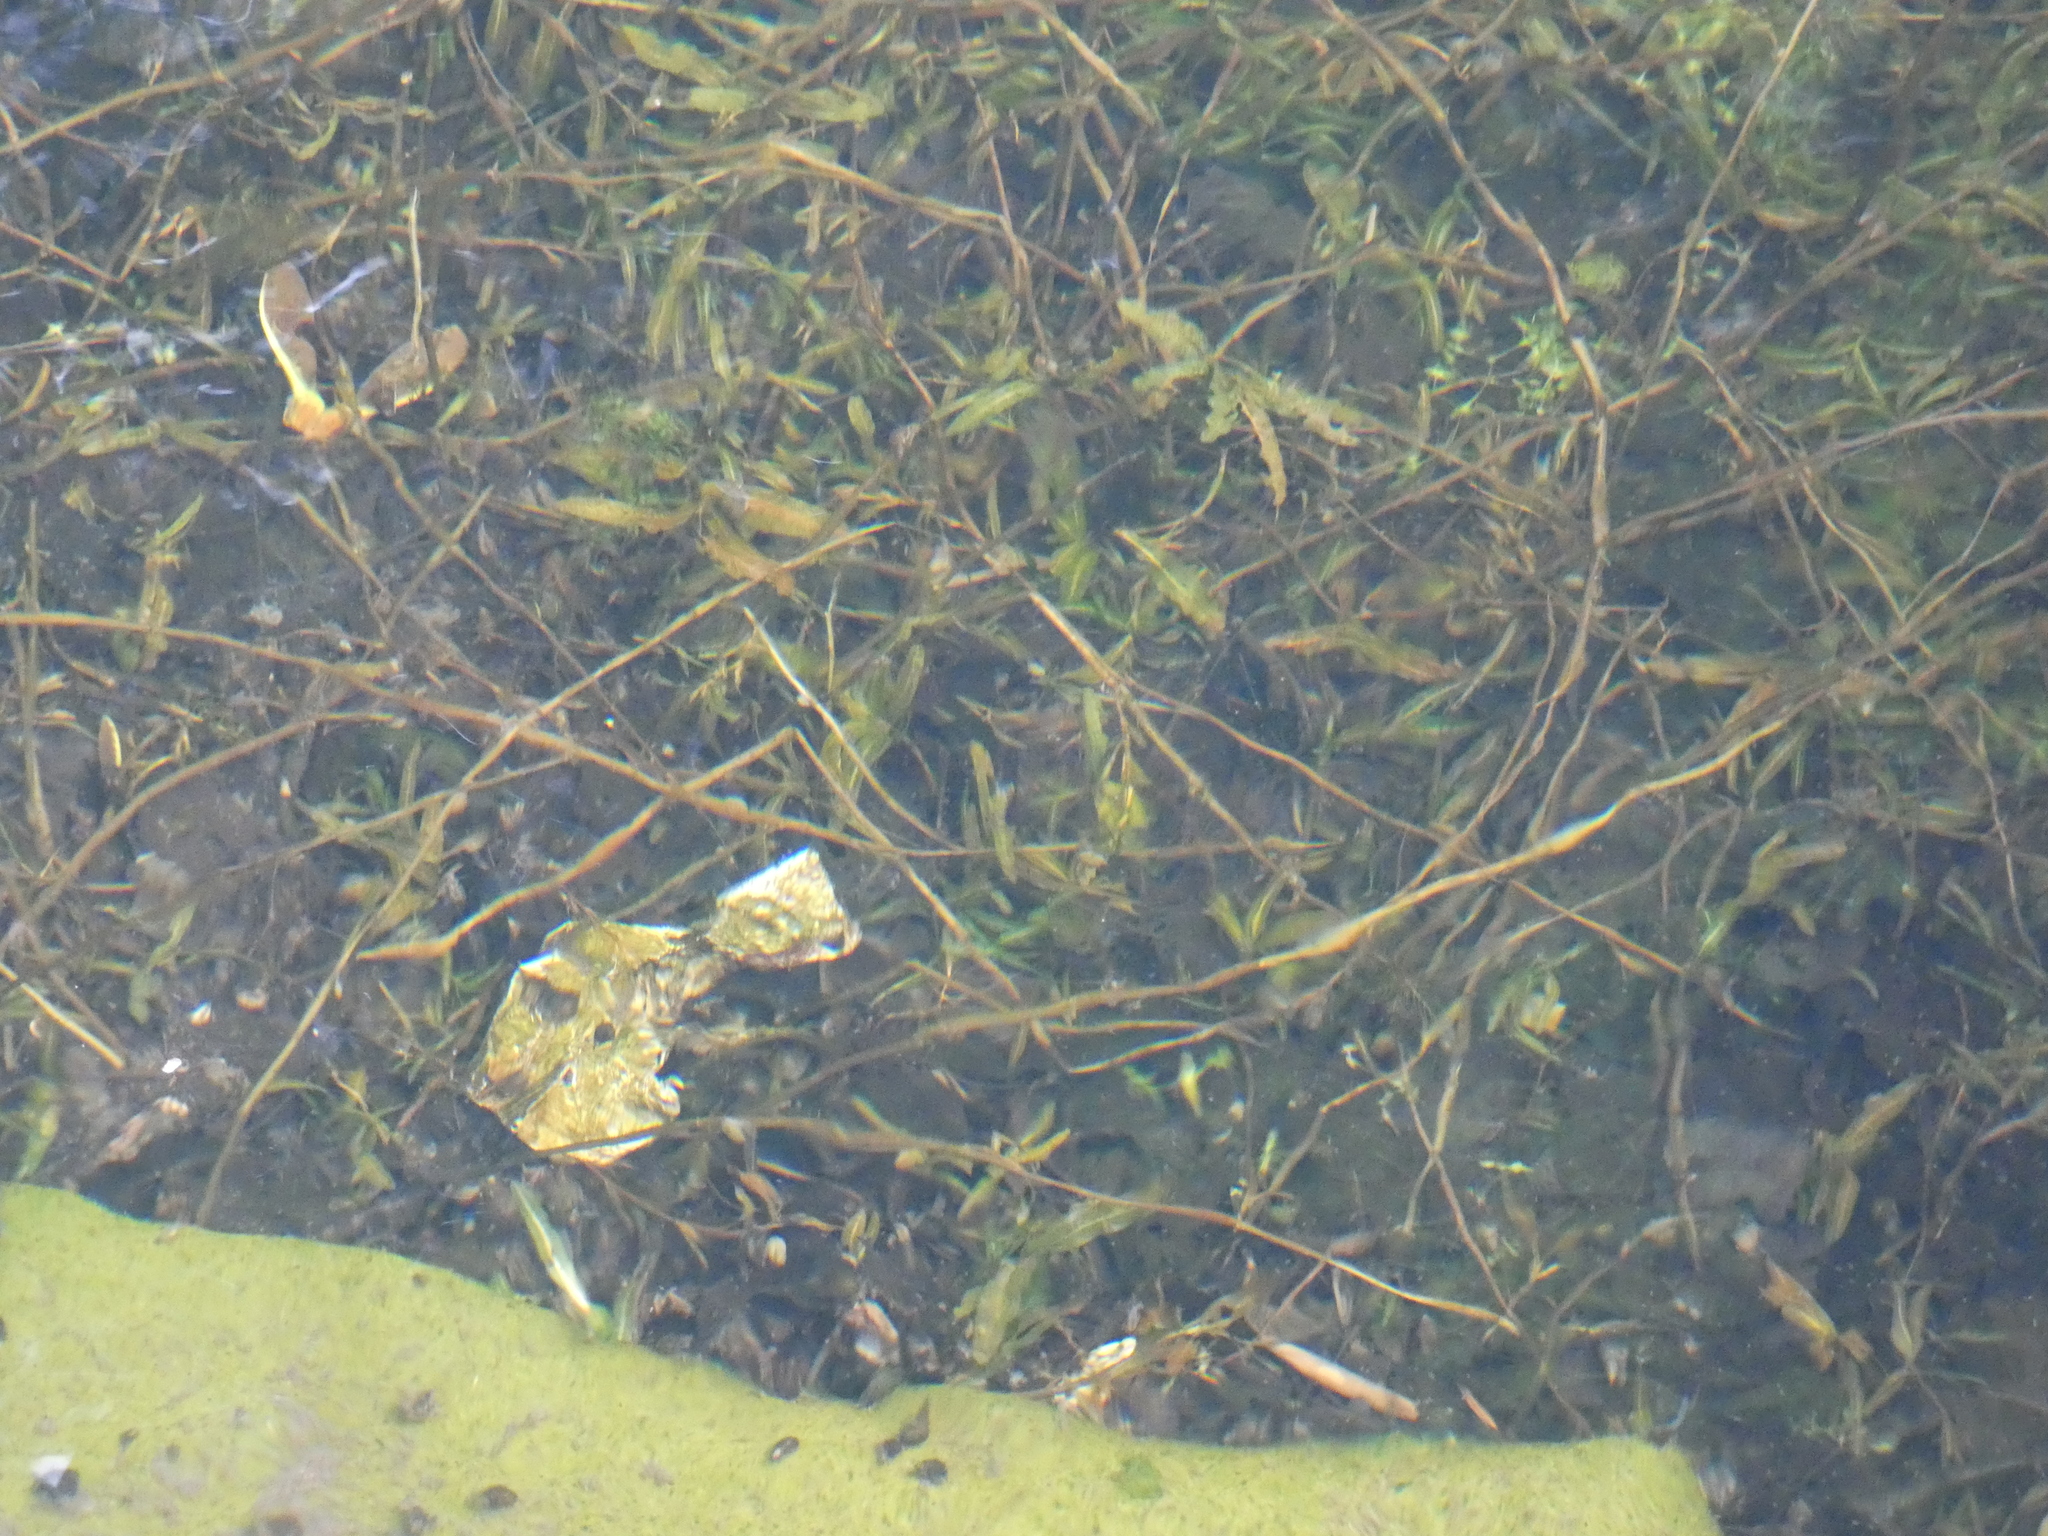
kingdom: Plantae
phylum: Tracheophyta
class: Liliopsida
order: Alismatales
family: Potamogetonaceae
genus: Potamogeton
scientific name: Potamogeton crispus
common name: Curled pondweed
